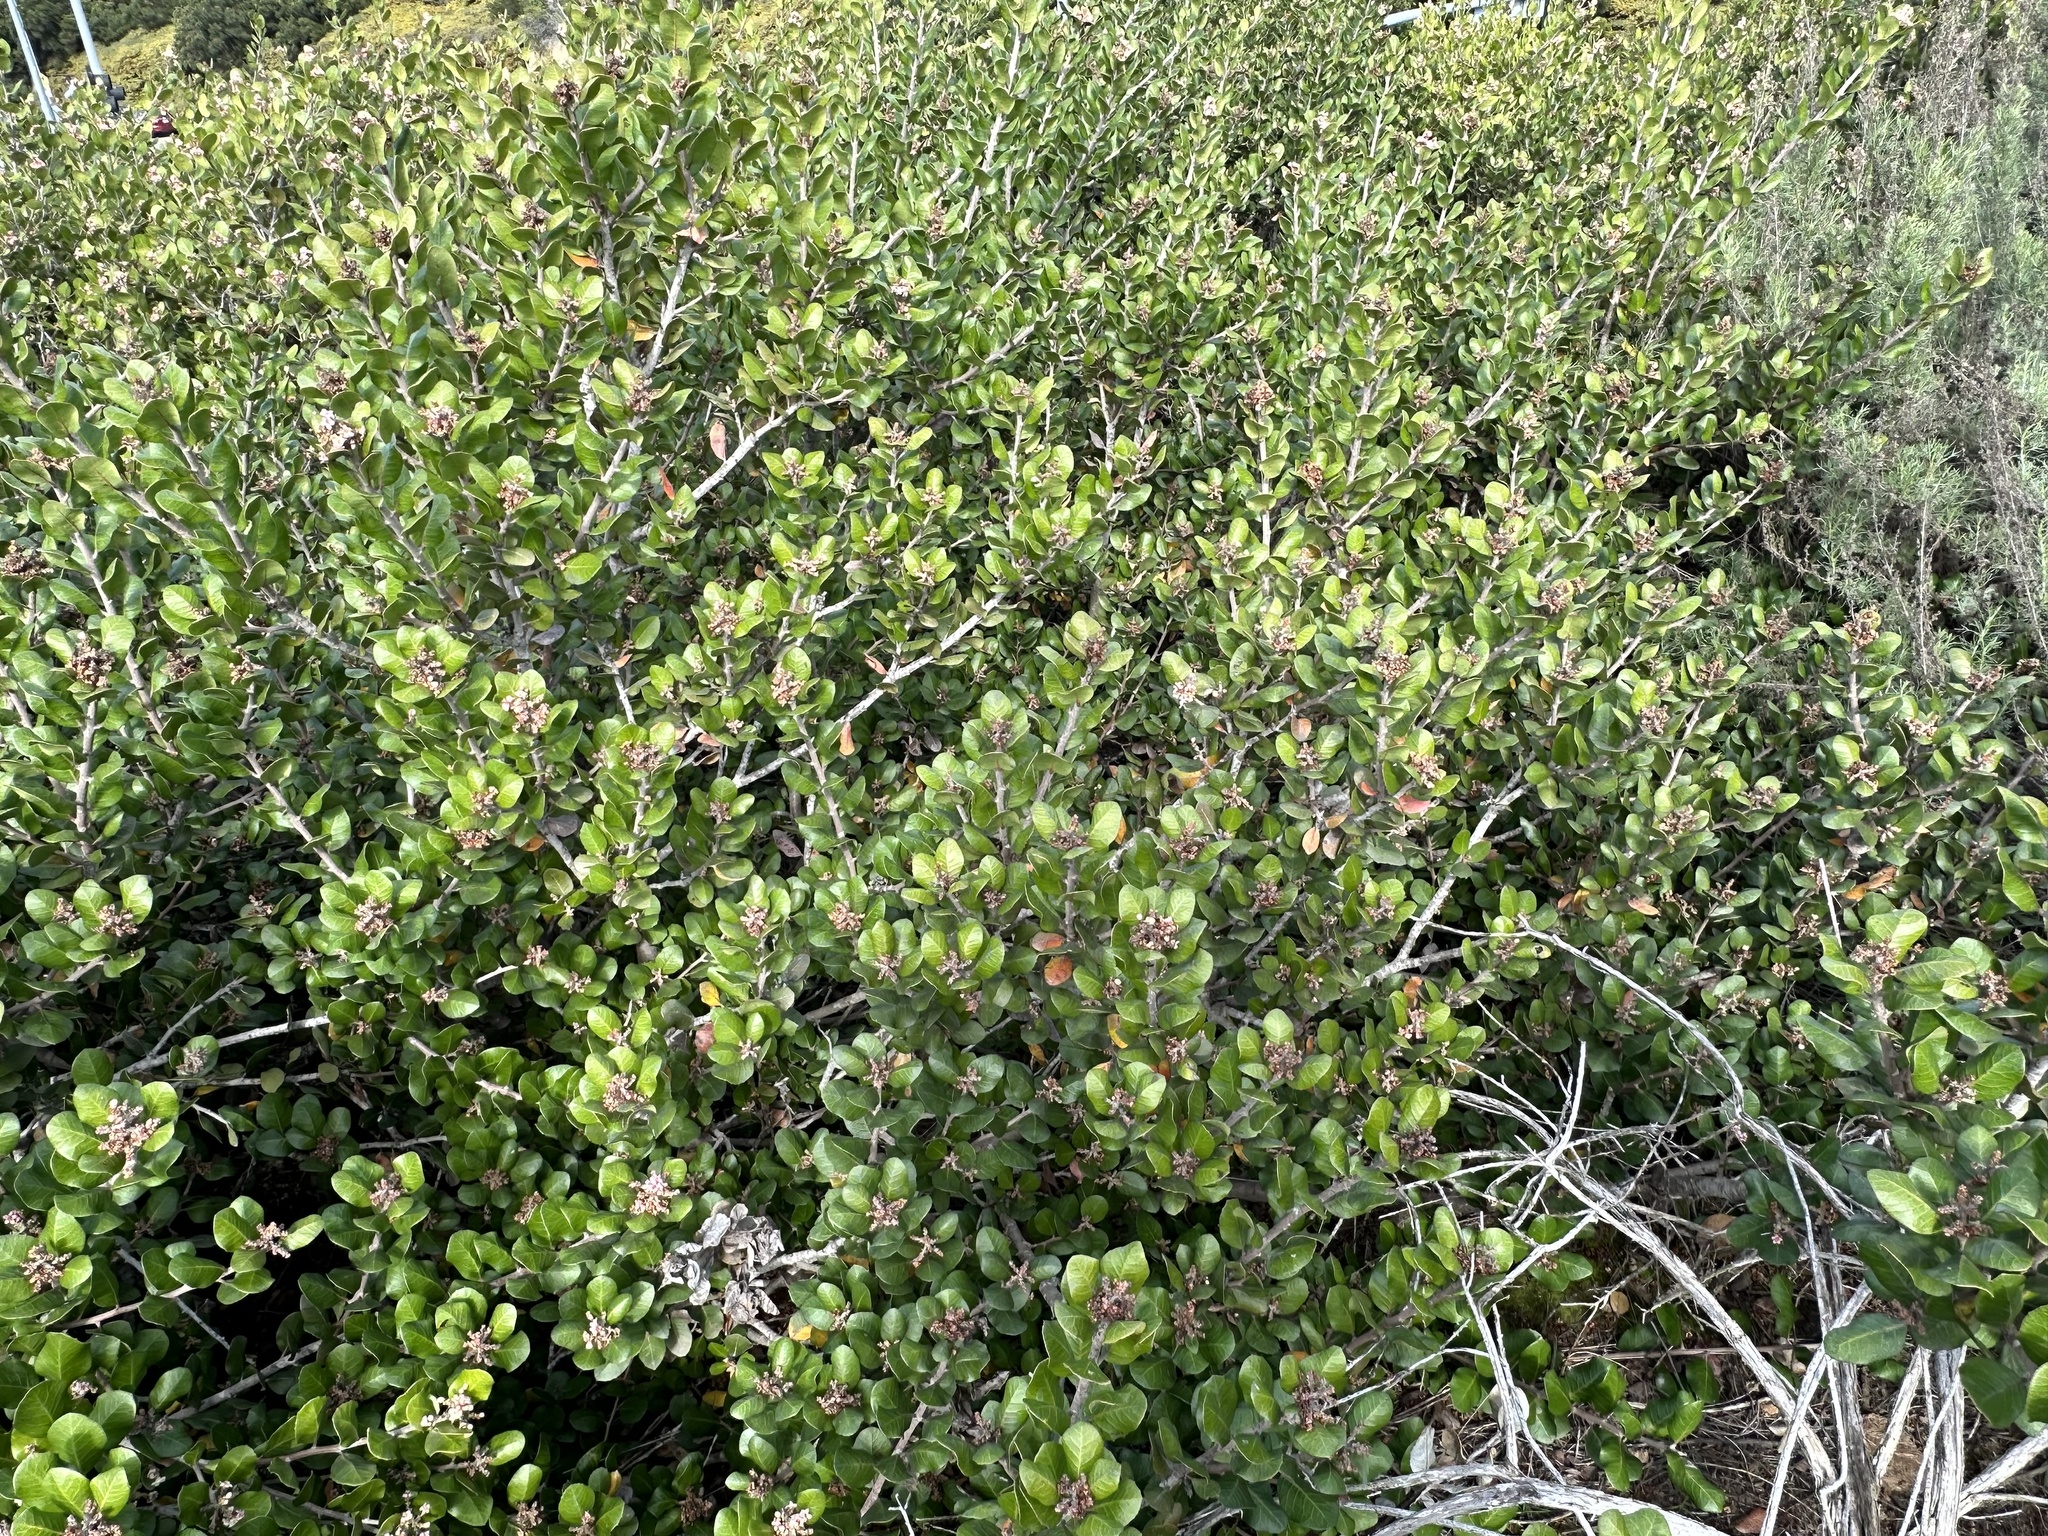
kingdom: Plantae
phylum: Tracheophyta
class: Magnoliopsida
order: Sapindales
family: Anacardiaceae
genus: Rhus
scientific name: Rhus integrifolia
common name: Lemonade sumac
